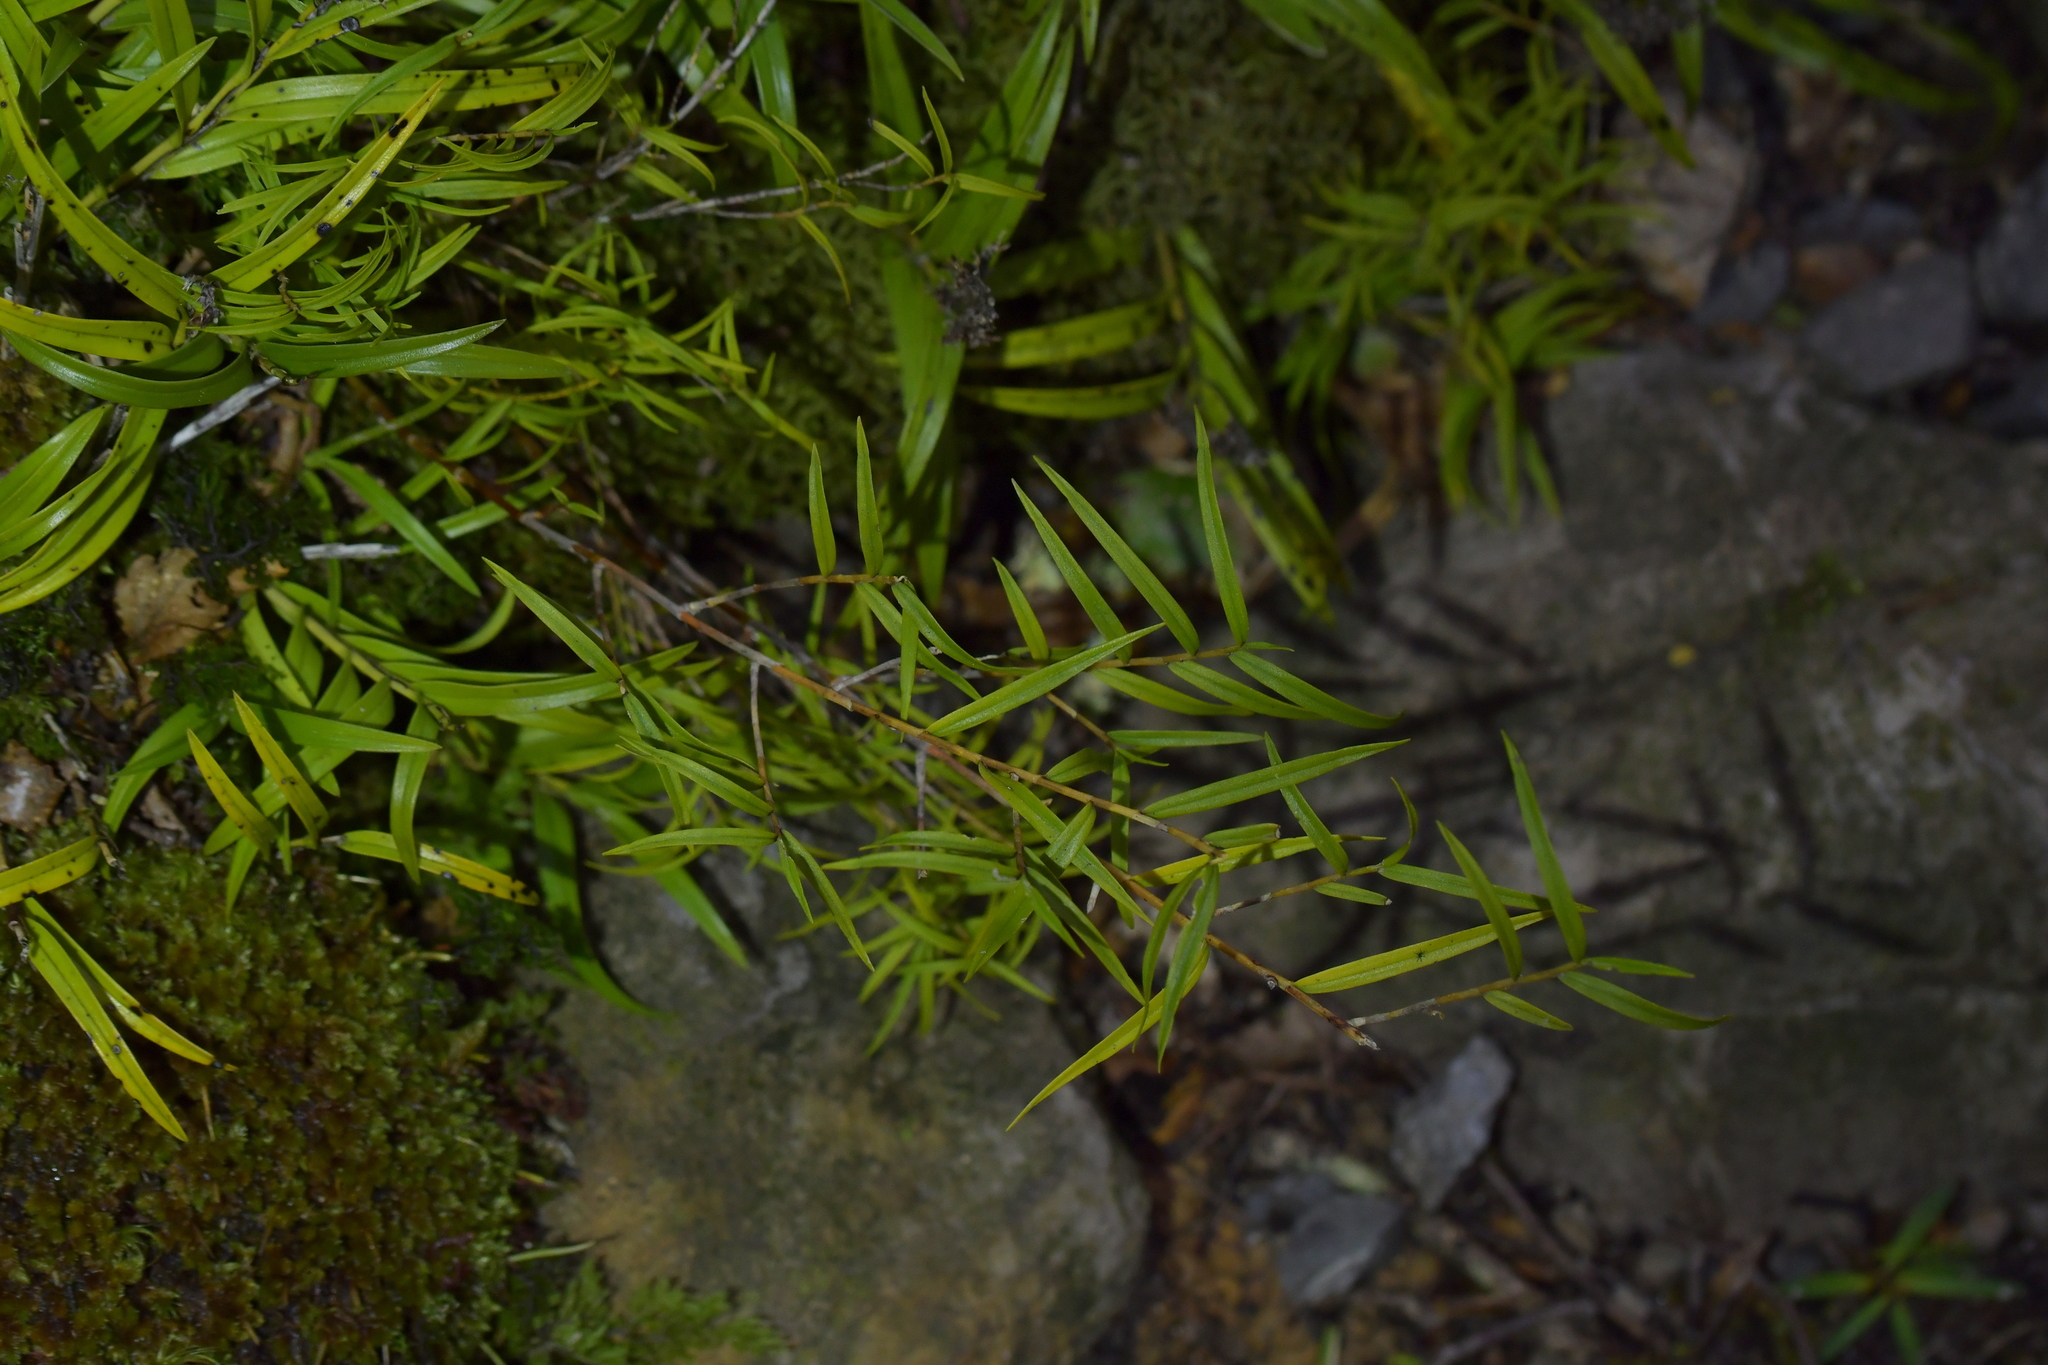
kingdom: Plantae
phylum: Tracheophyta
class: Liliopsida
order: Asparagales
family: Orchidaceae
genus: Dendrobium
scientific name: Dendrobium cunninghamii
